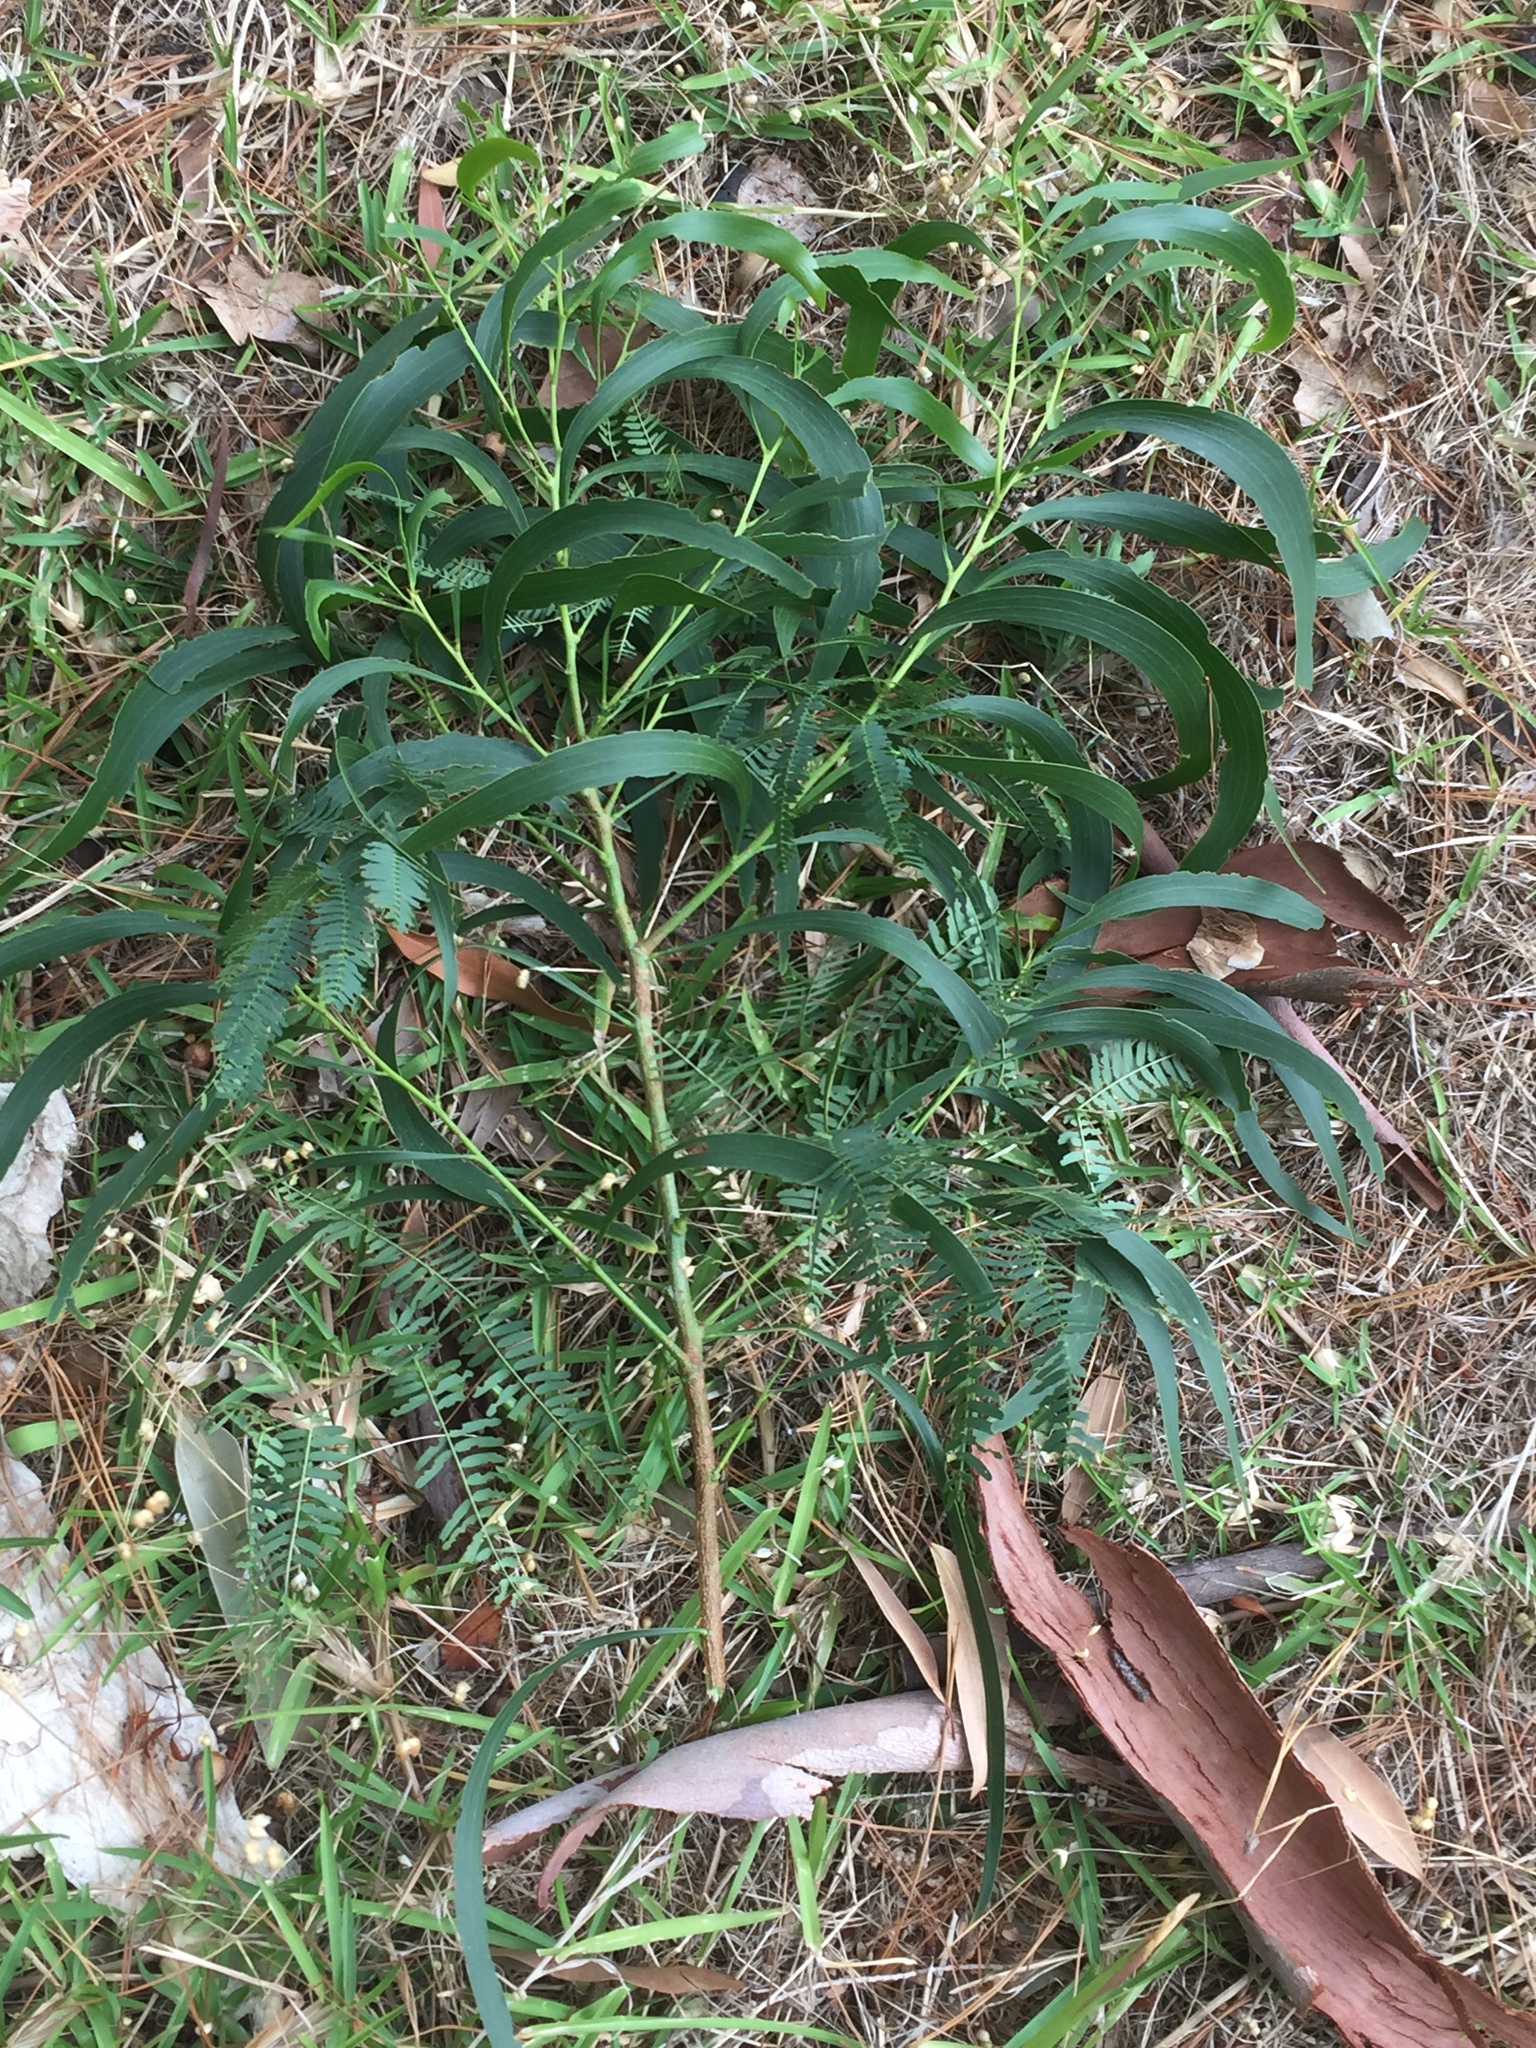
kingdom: Plantae
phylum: Tracheophyta
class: Magnoliopsida
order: Fabales
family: Fabaceae
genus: Acacia
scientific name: Acacia implexa
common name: Black wattle
